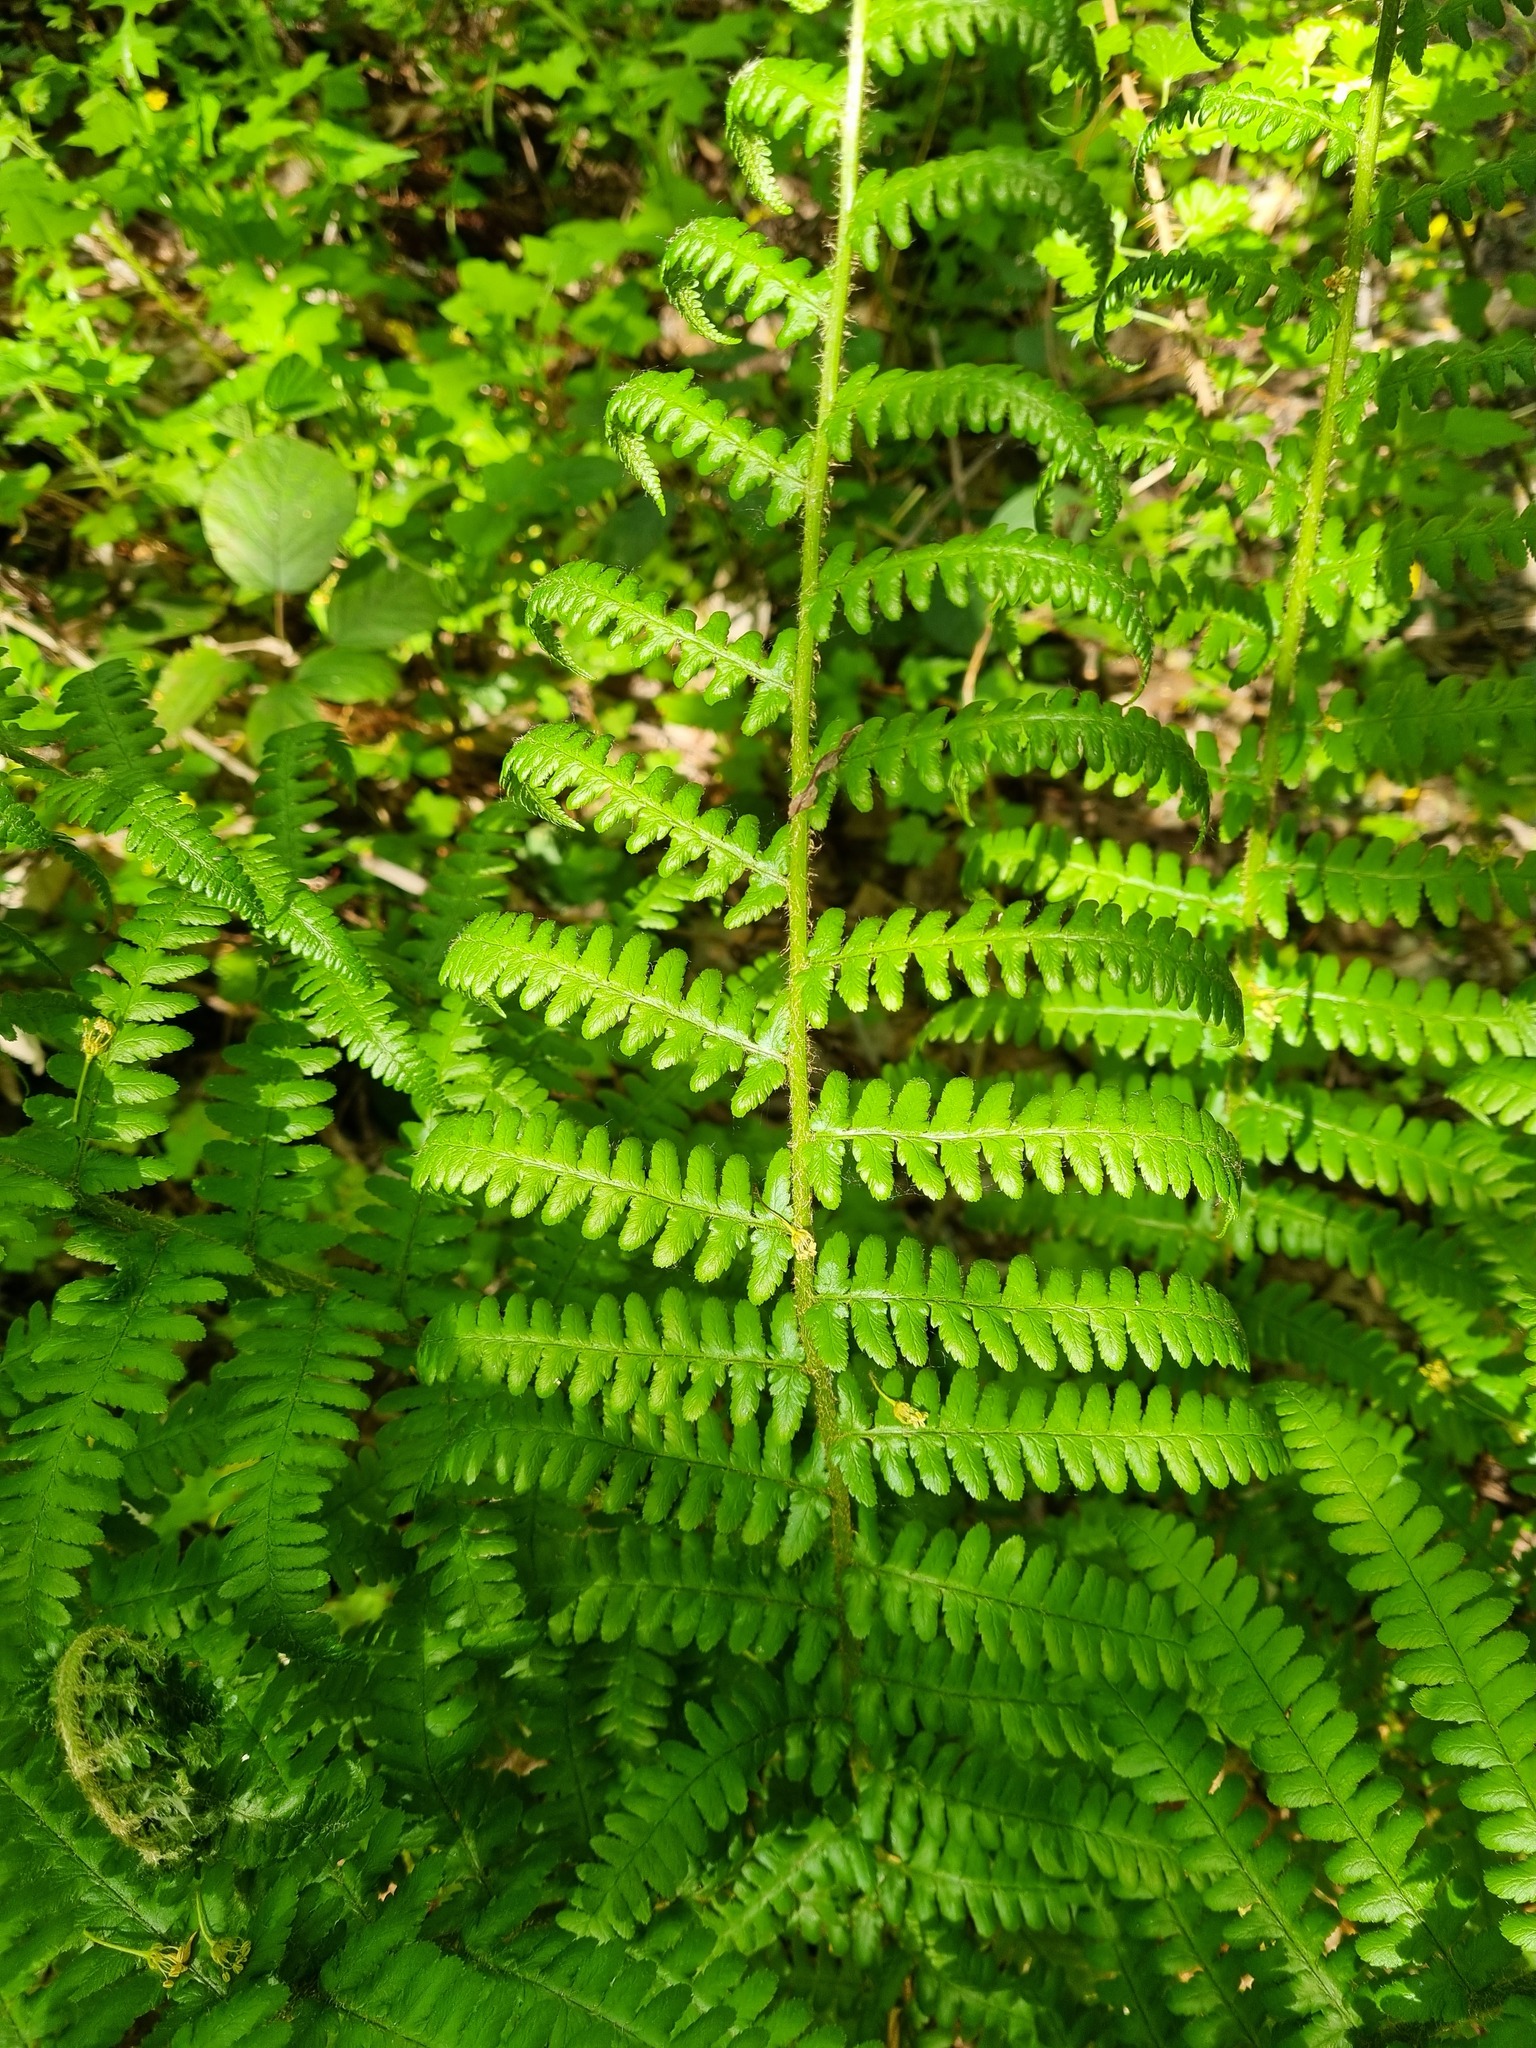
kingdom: Plantae
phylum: Tracheophyta
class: Polypodiopsida
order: Polypodiales
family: Dryopteridaceae
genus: Dryopteris
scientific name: Dryopteris filix-mas
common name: Male fern
